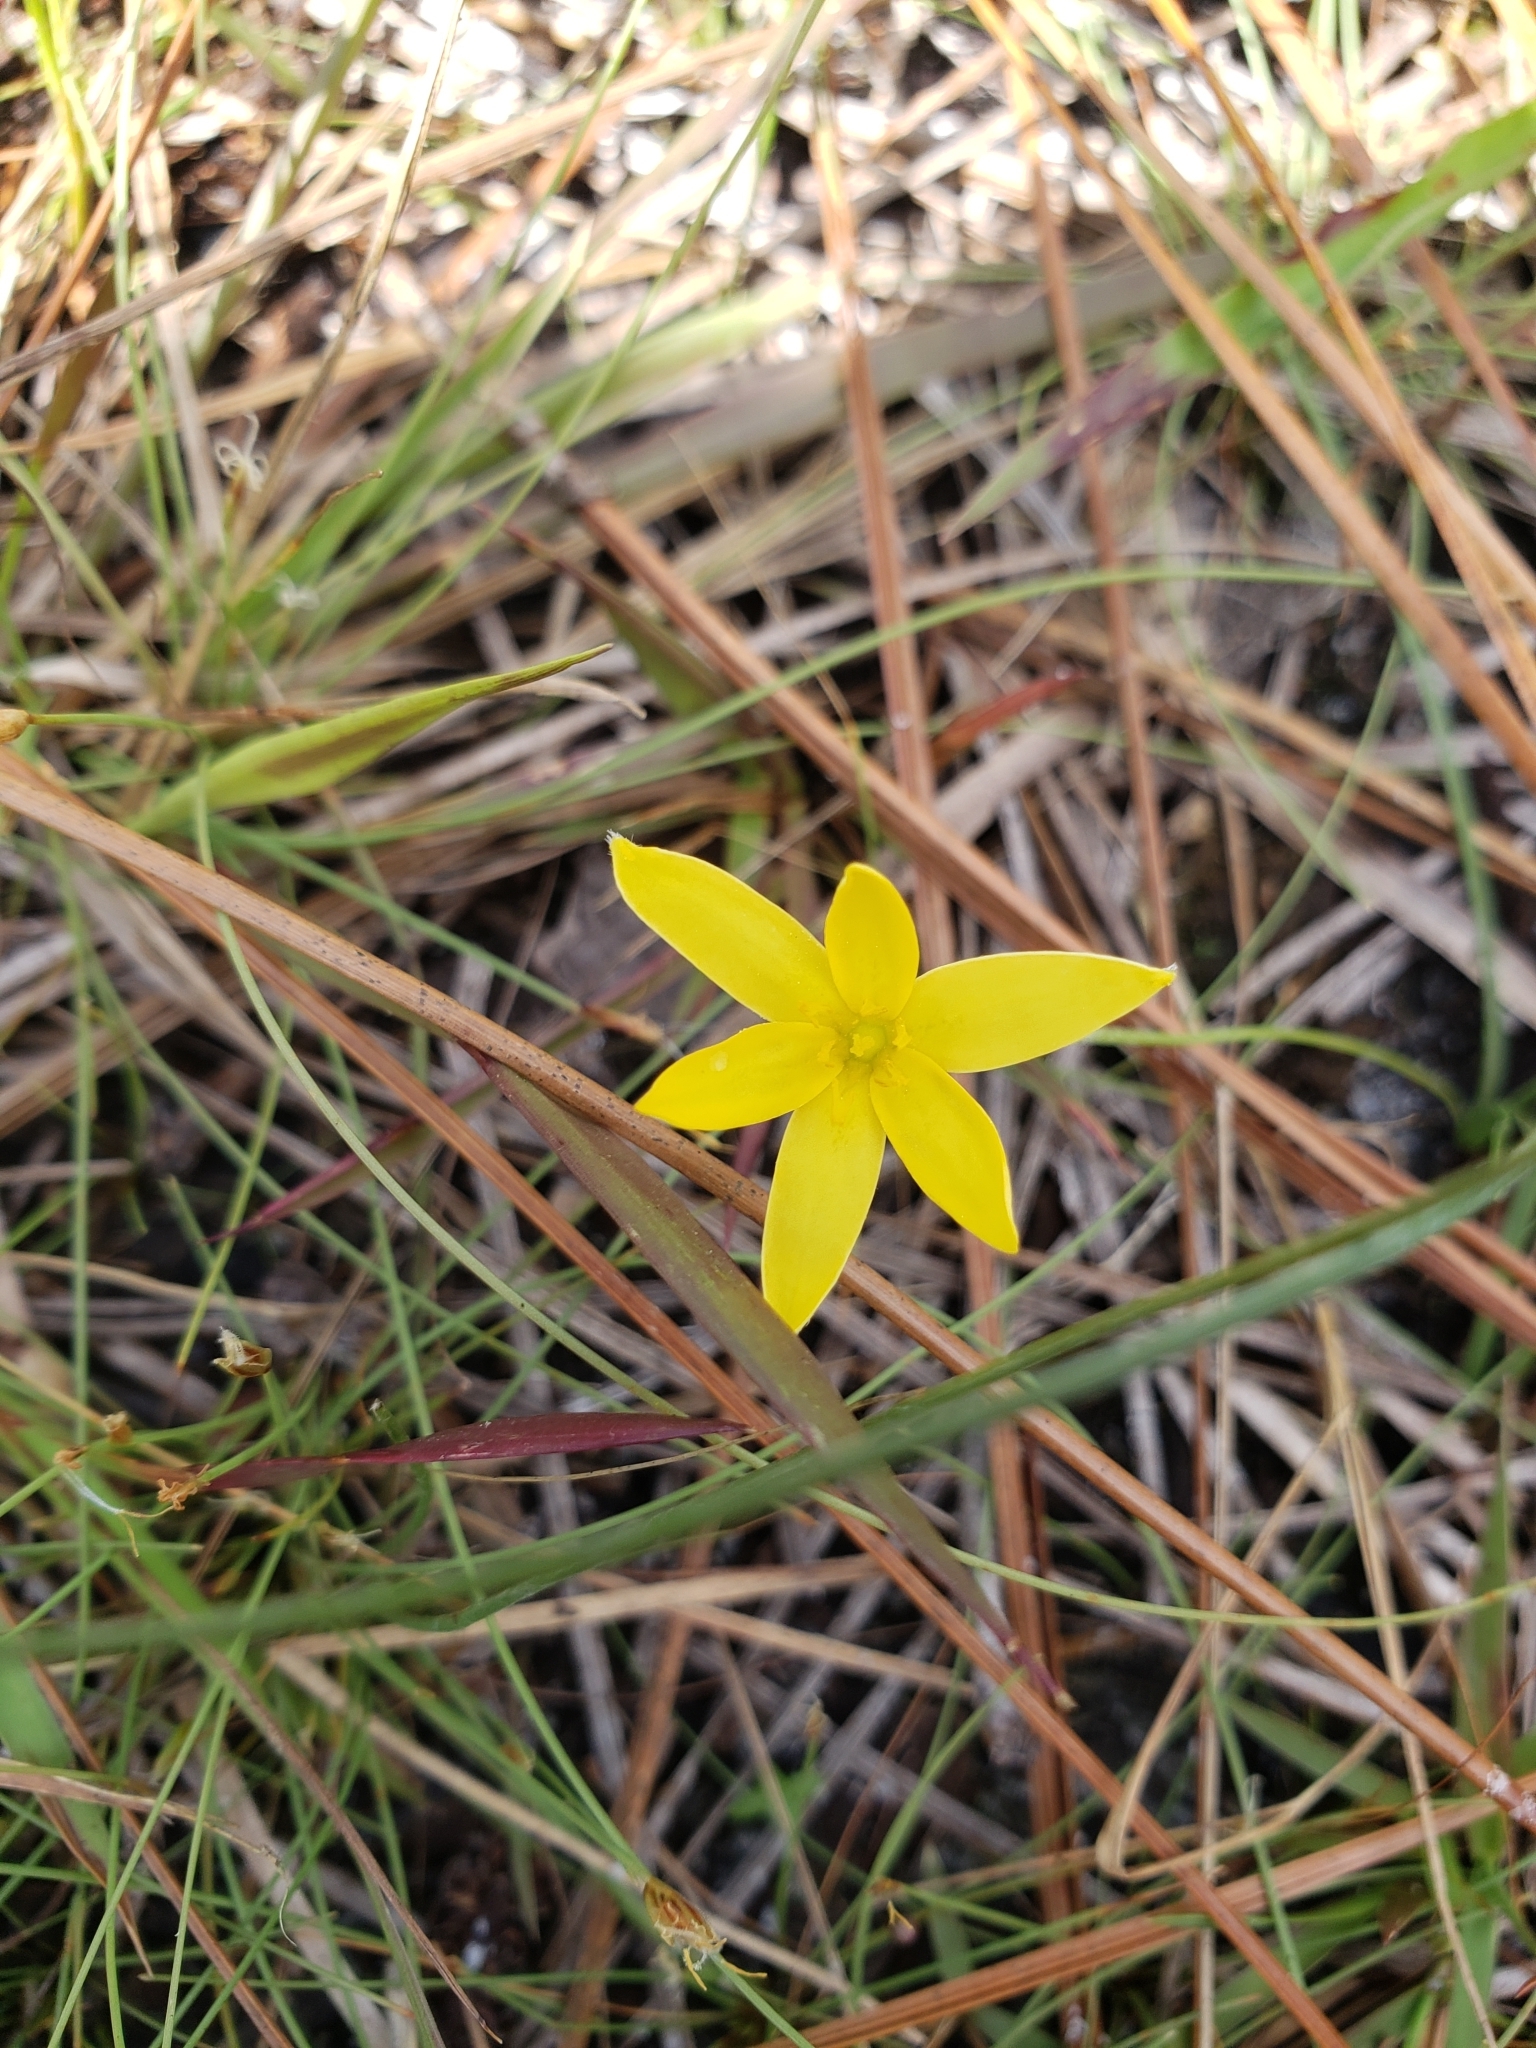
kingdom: Plantae
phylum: Tracheophyta
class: Liliopsida
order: Asparagales
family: Hypoxidaceae
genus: Hypoxis
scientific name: Hypoxis juncea
